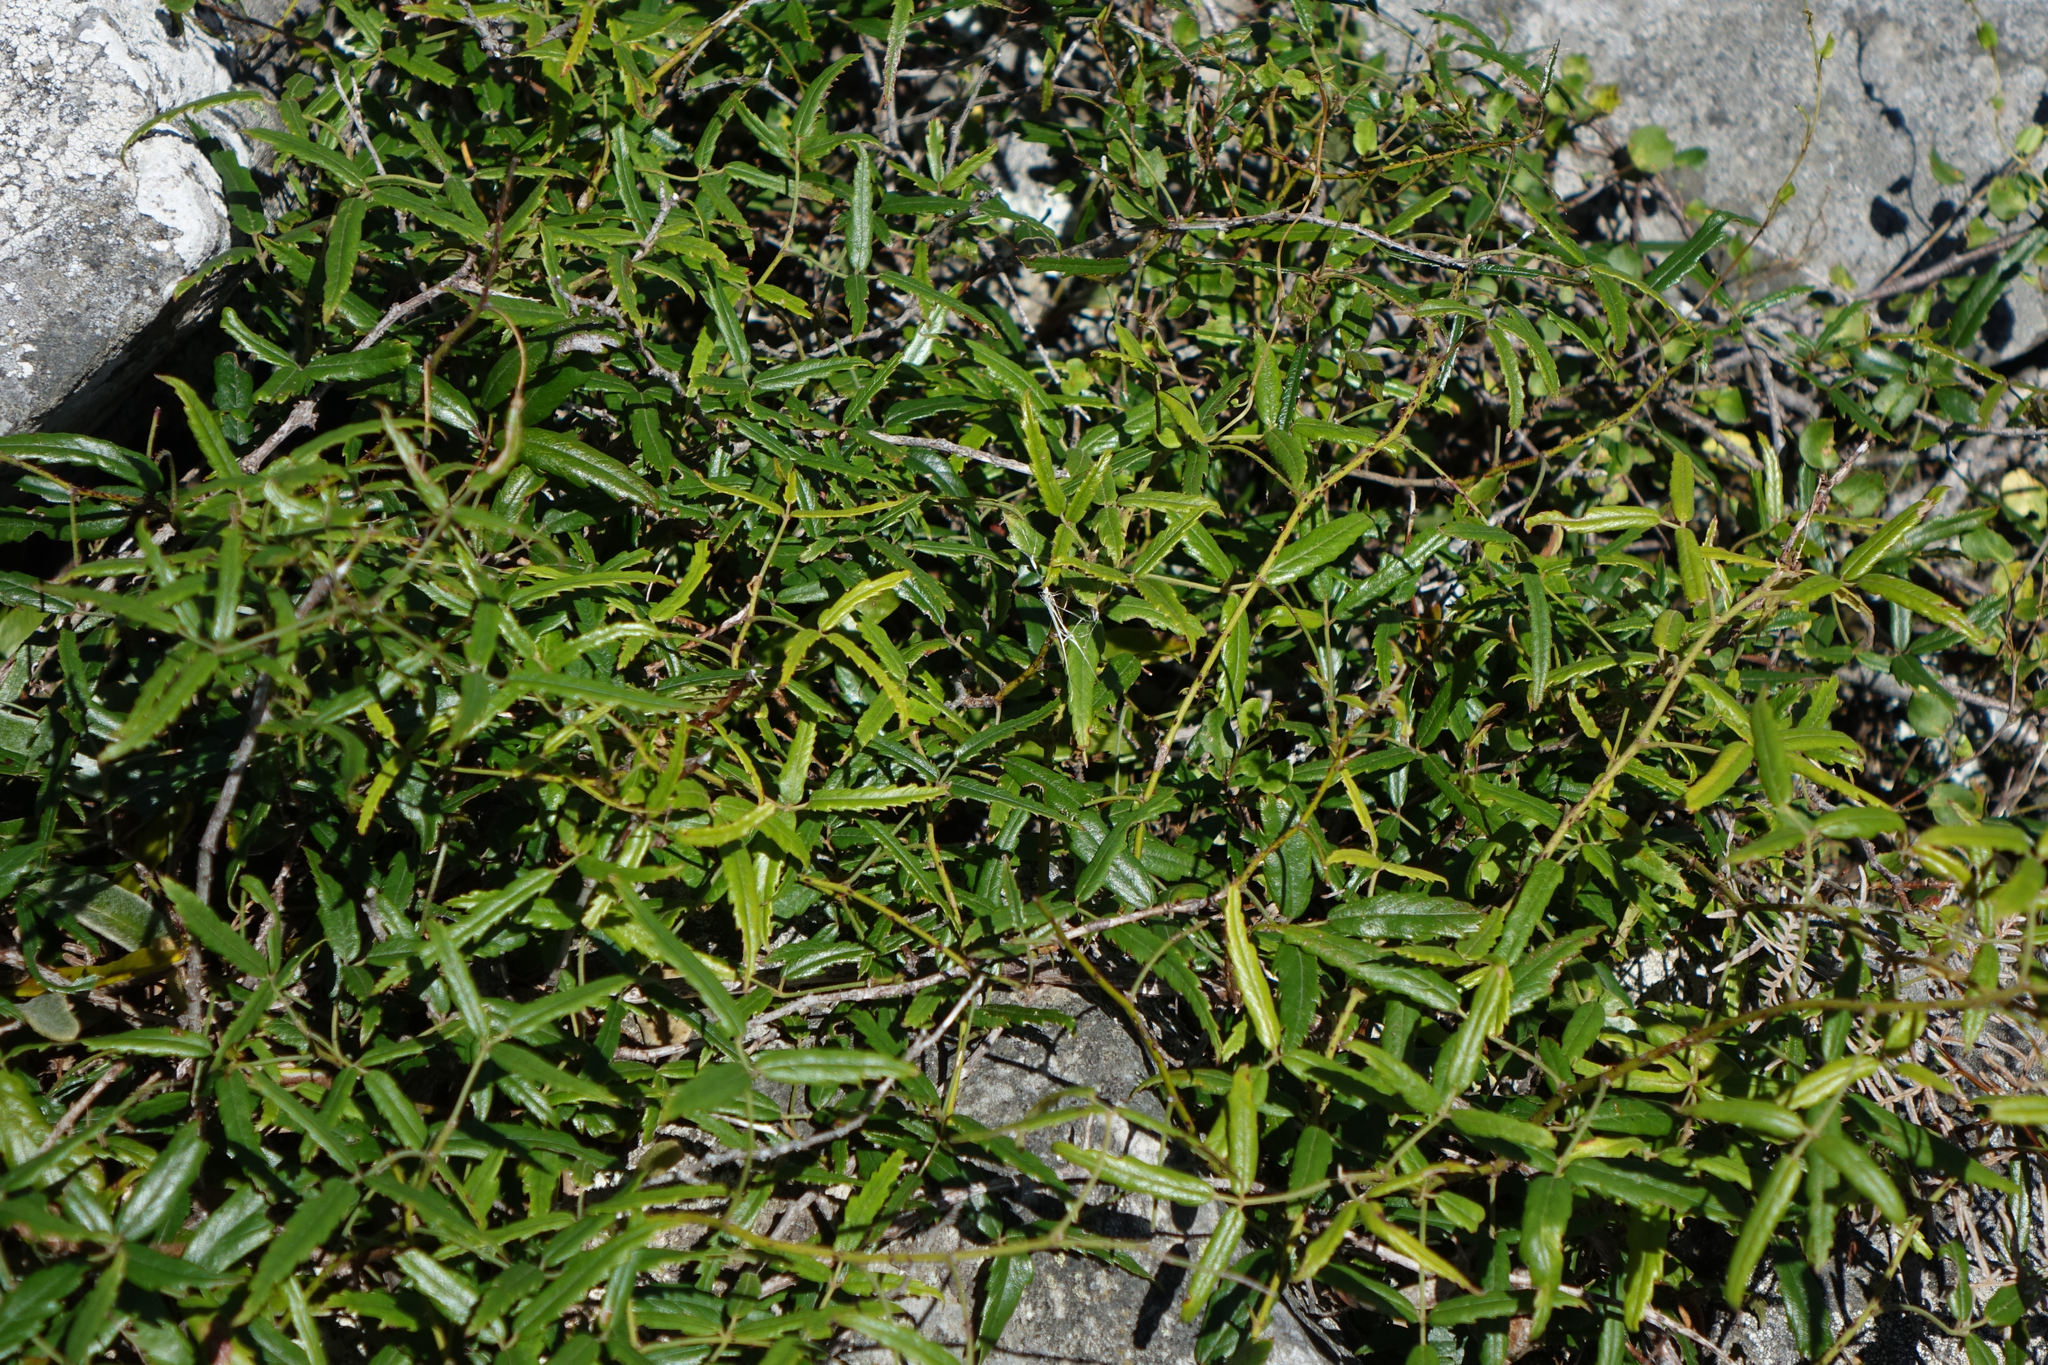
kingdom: Plantae
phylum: Tracheophyta
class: Magnoliopsida
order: Rosales
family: Rosaceae
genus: Rubus
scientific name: Rubus schmidelioides
